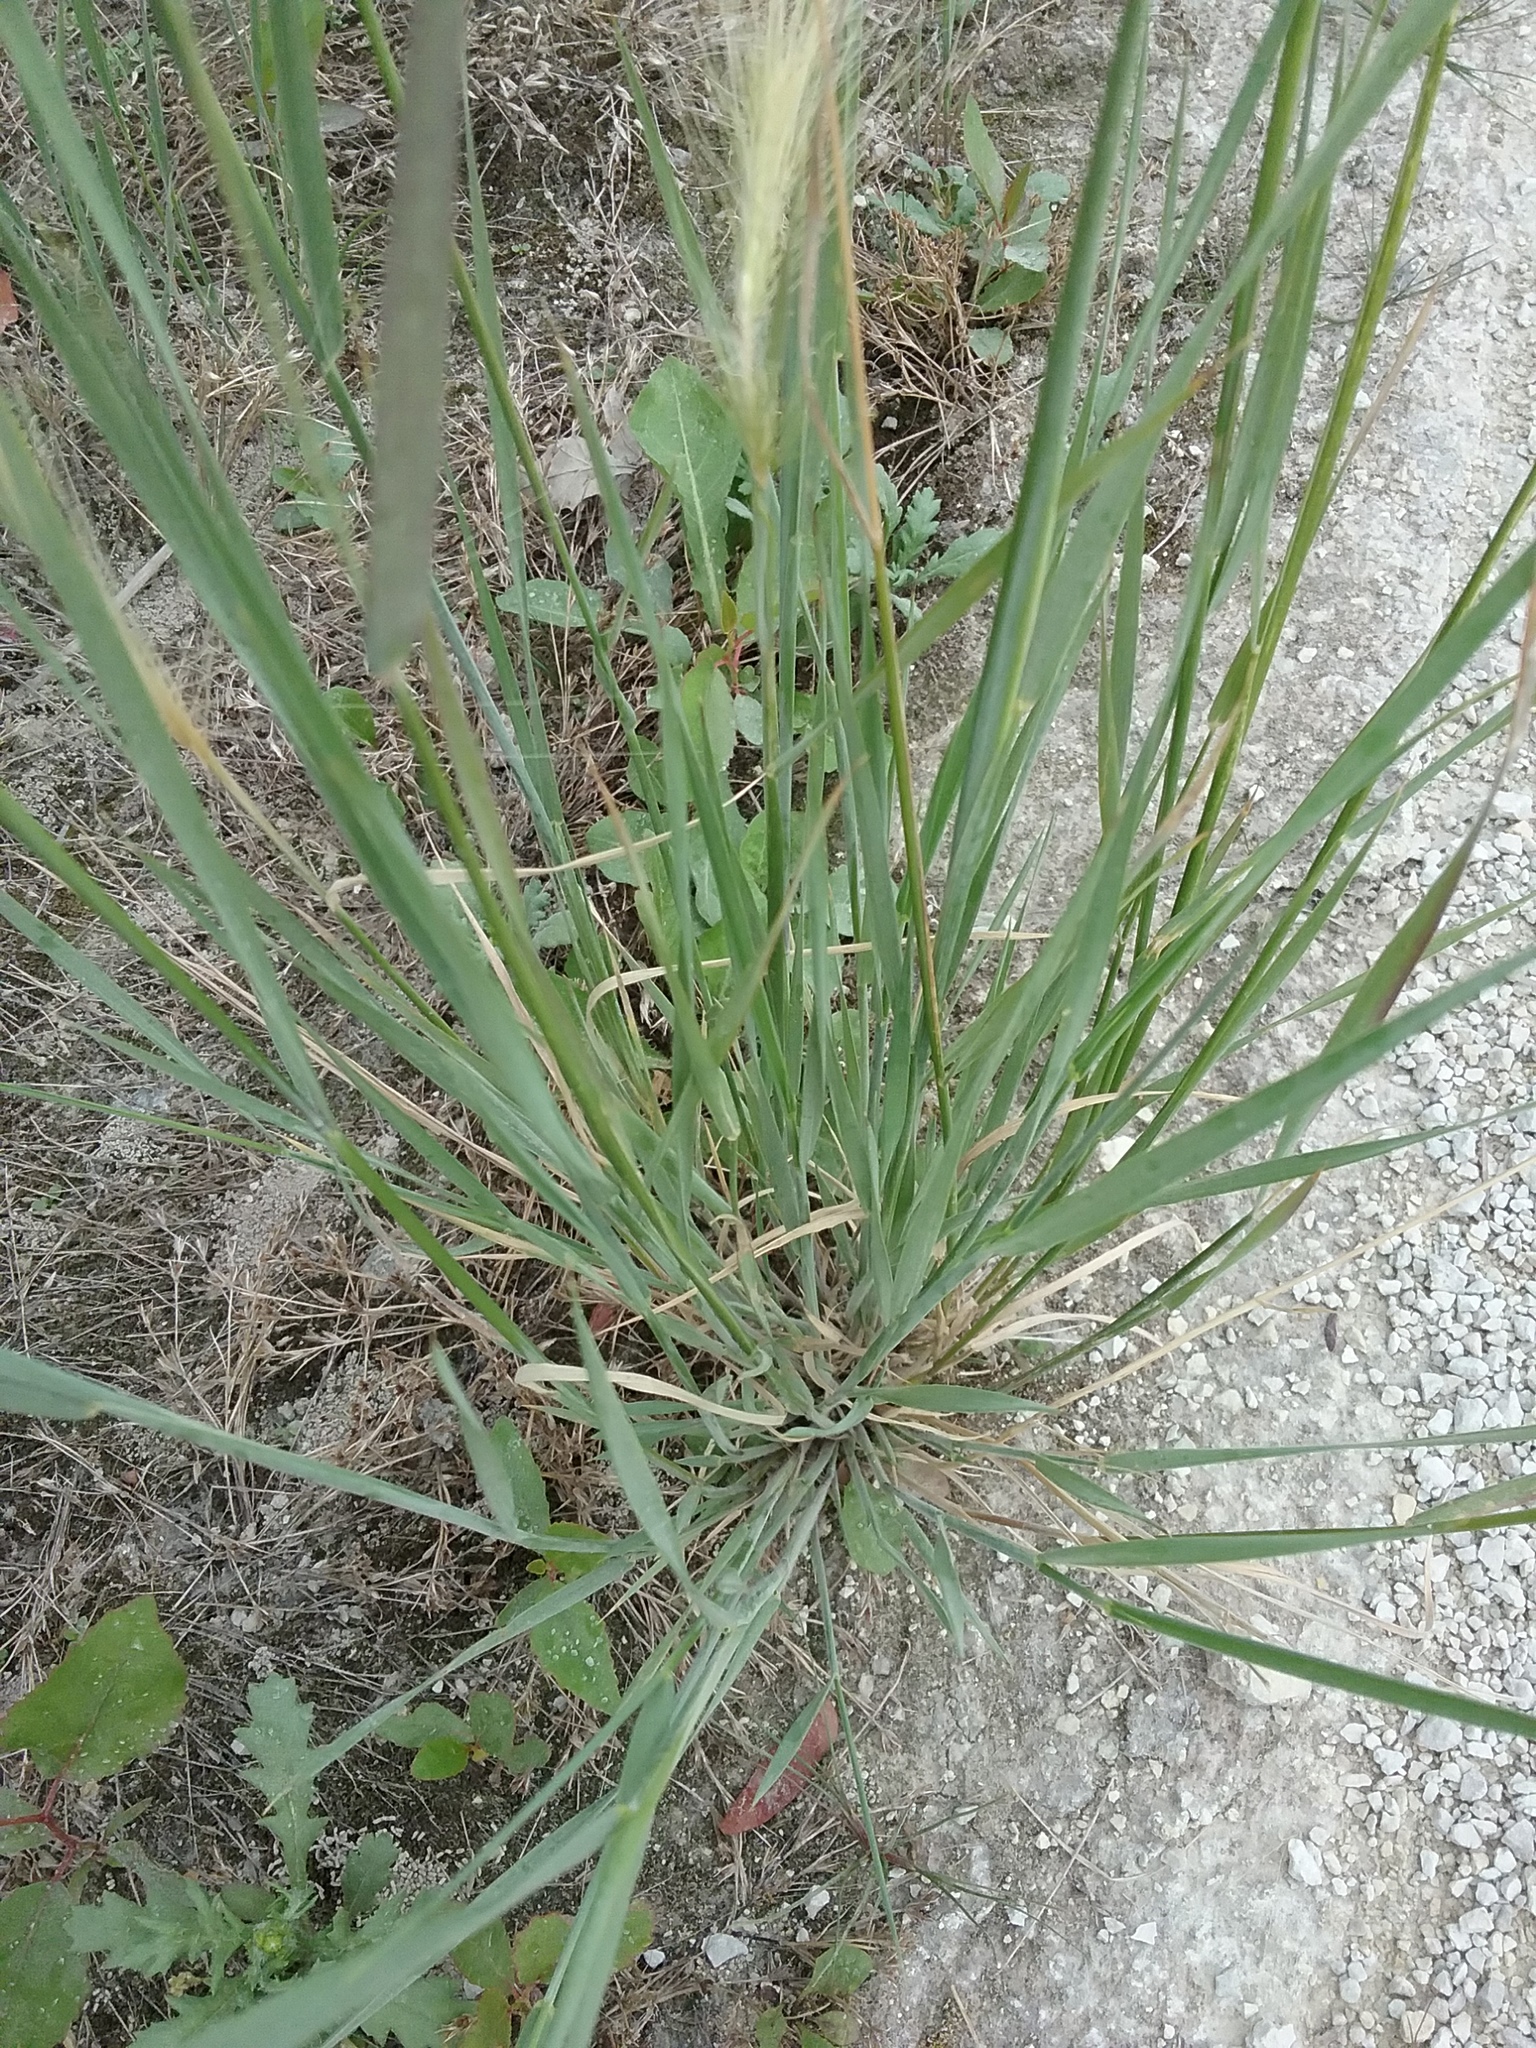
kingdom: Plantae
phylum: Tracheophyta
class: Liliopsida
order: Poales
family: Poaceae
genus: Hordeum
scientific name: Hordeum jubatum
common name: Foxtail barley
